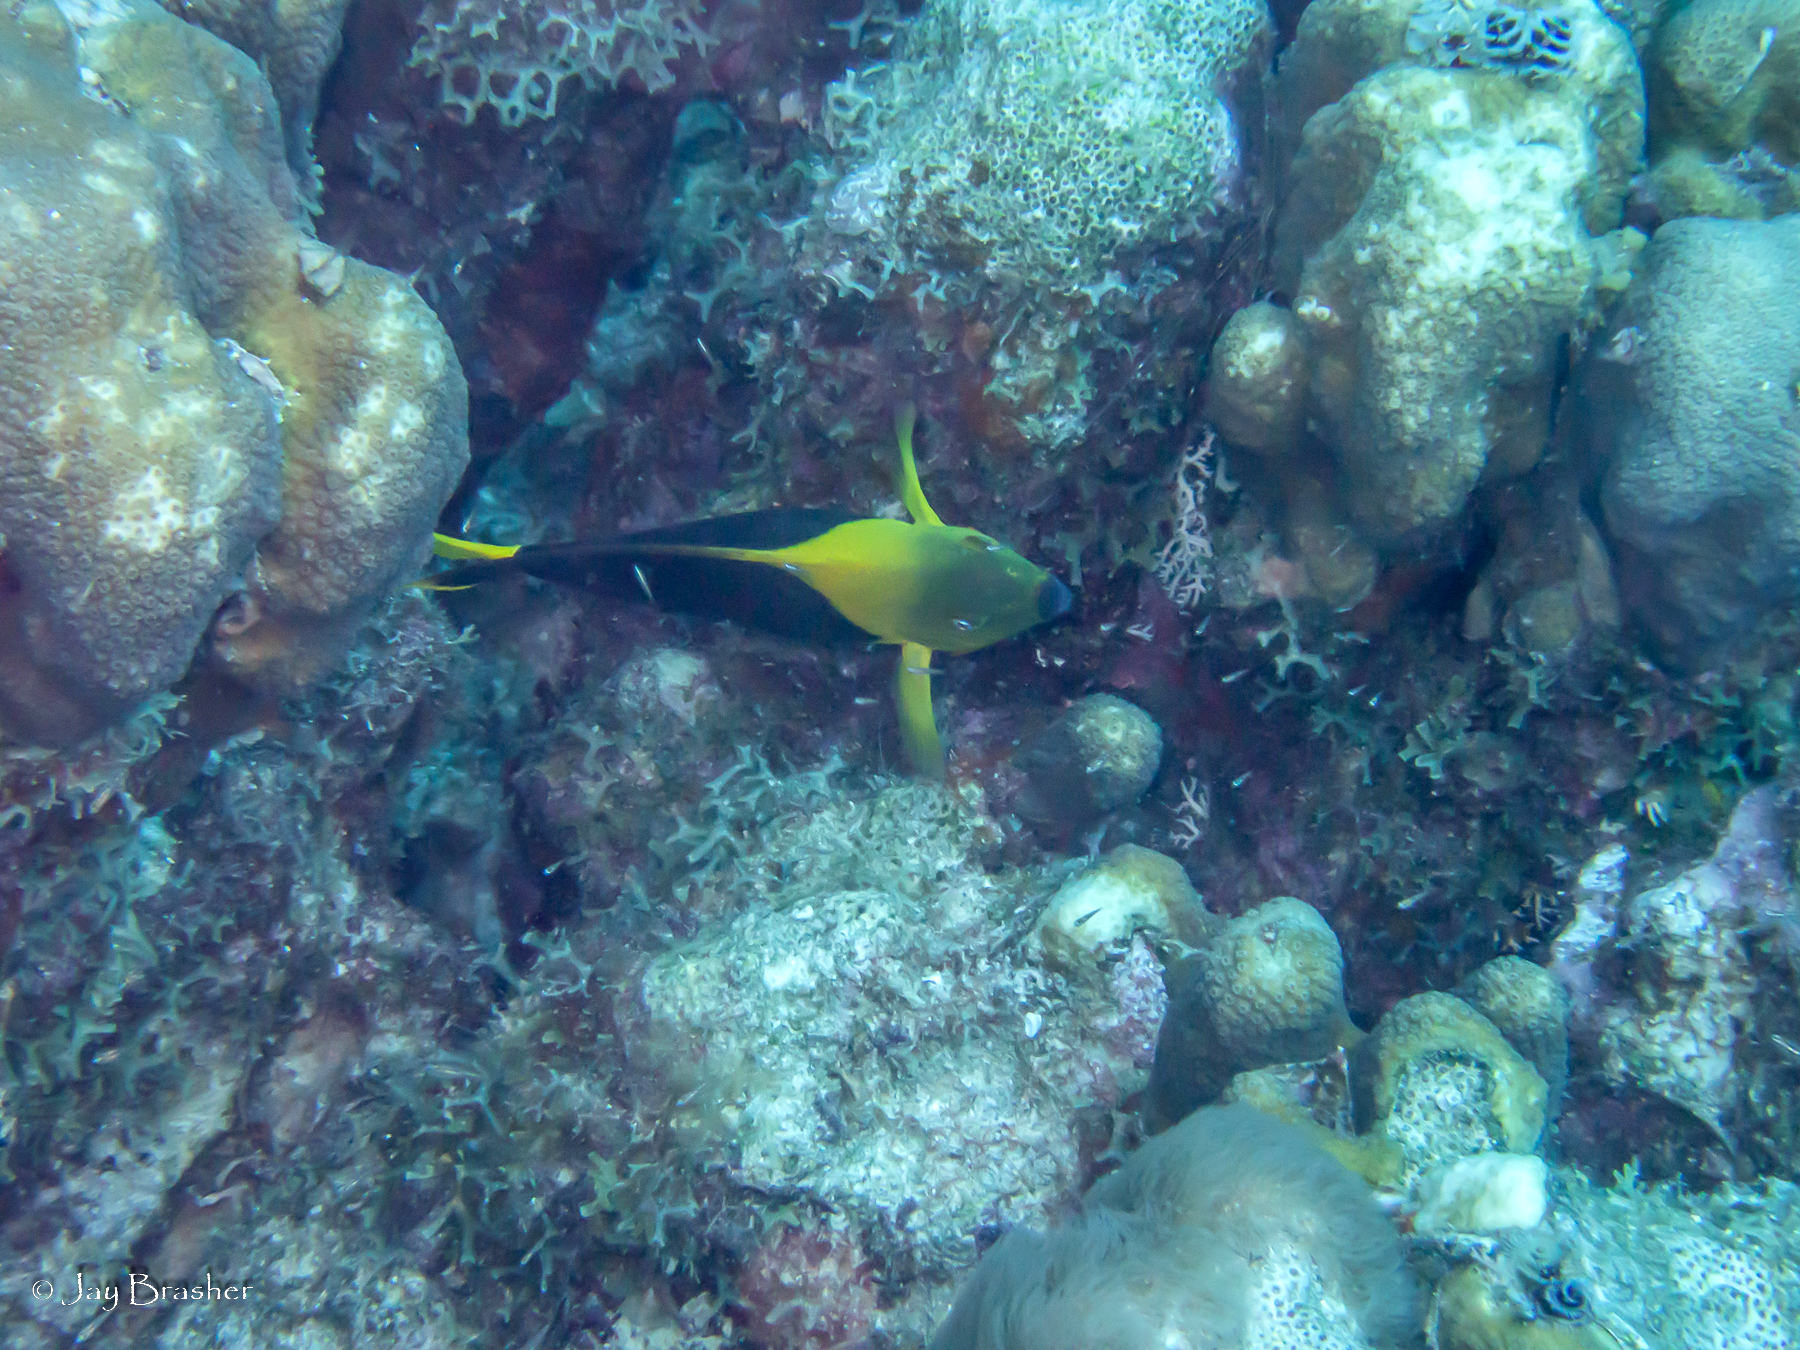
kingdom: Animalia
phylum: Chordata
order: Perciformes
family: Pomacanthidae
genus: Holacanthus
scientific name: Holacanthus tricolor
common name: Rock beauty
